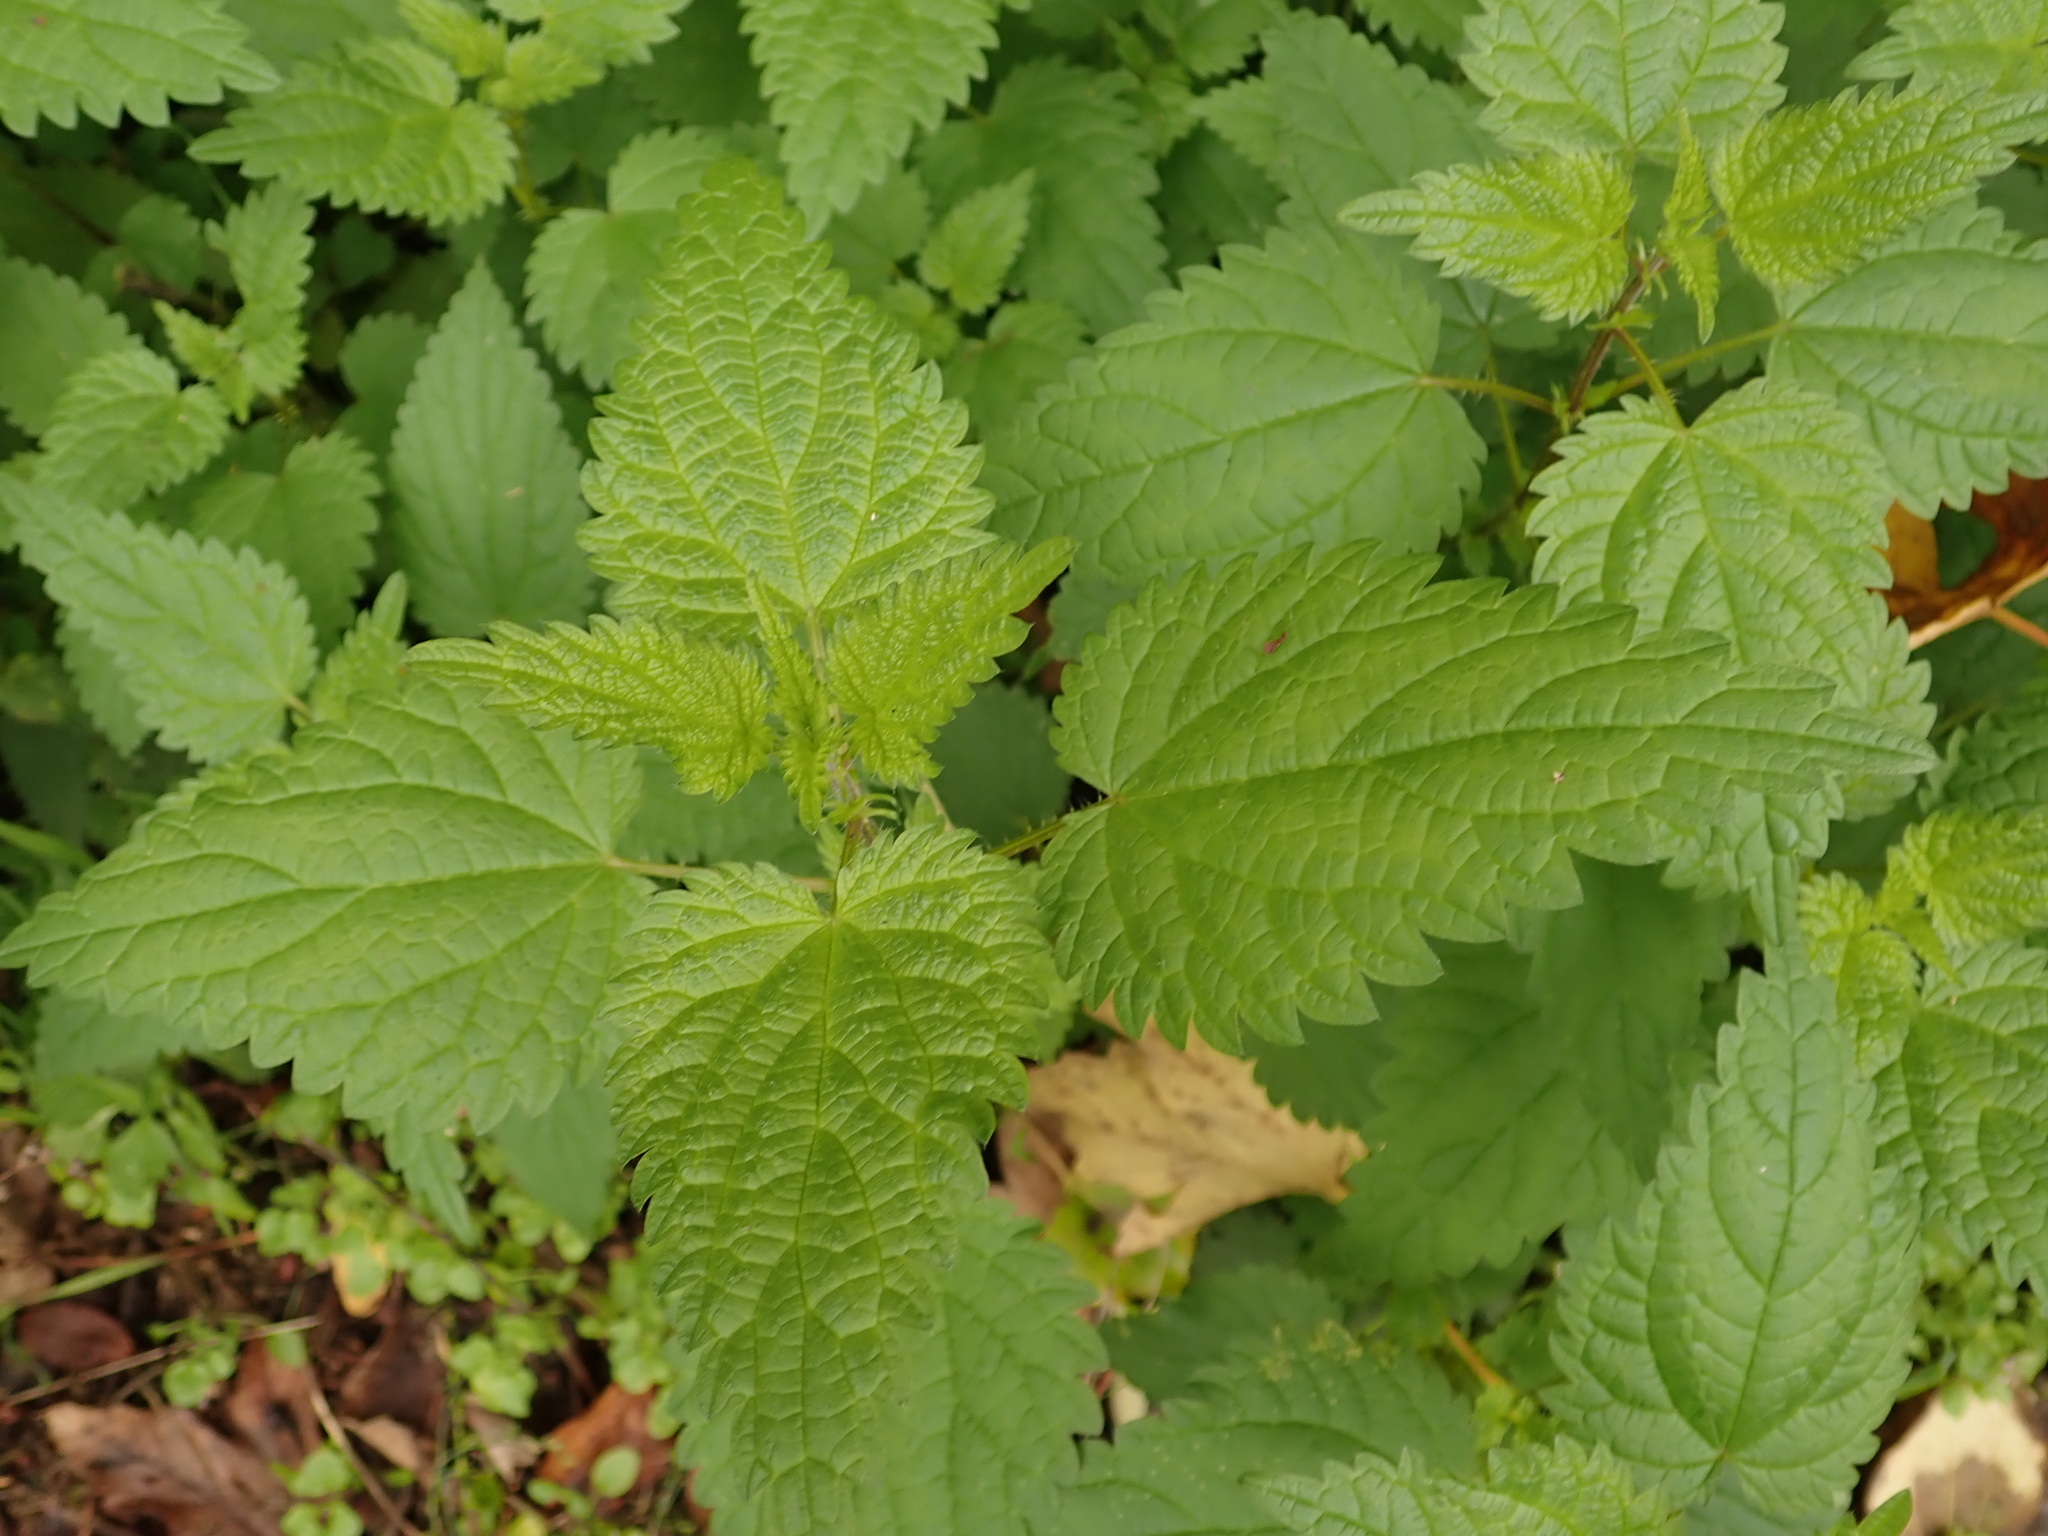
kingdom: Plantae
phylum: Tracheophyta
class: Magnoliopsida
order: Rosales
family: Urticaceae
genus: Urtica
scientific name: Urtica dioica
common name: Common nettle
